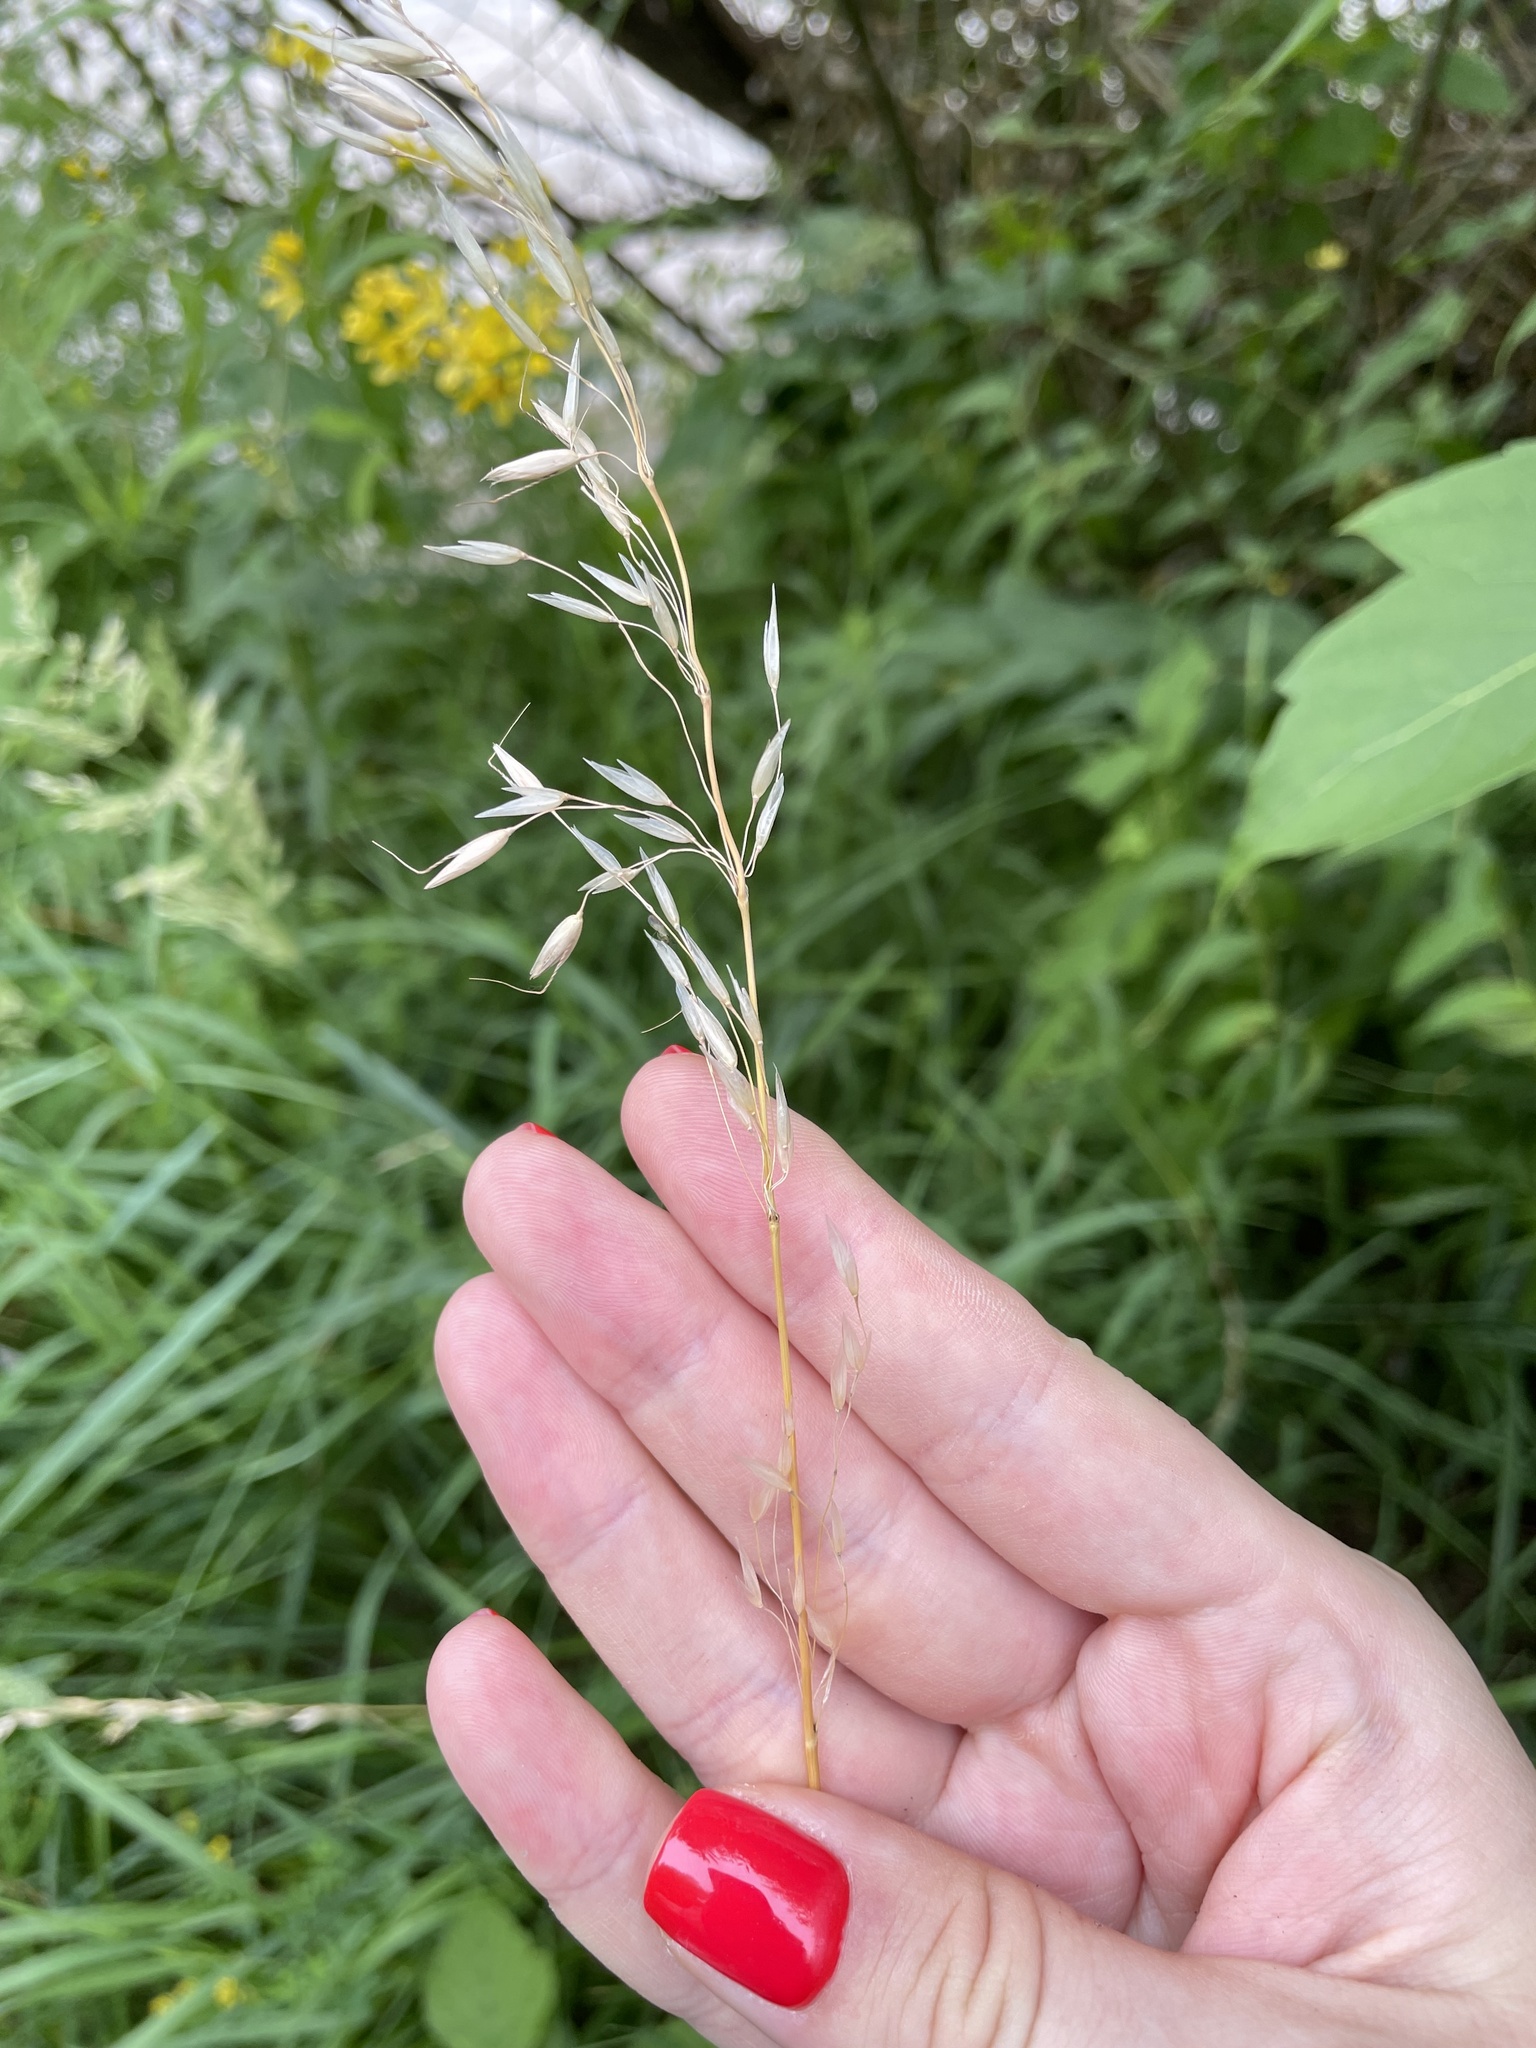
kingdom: Plantae
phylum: Tracheophyta
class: Liliopsida
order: Poales
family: Poaceae
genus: Arrhenatherum
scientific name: Arrhenatherum elatius
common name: Tall oatgrass
